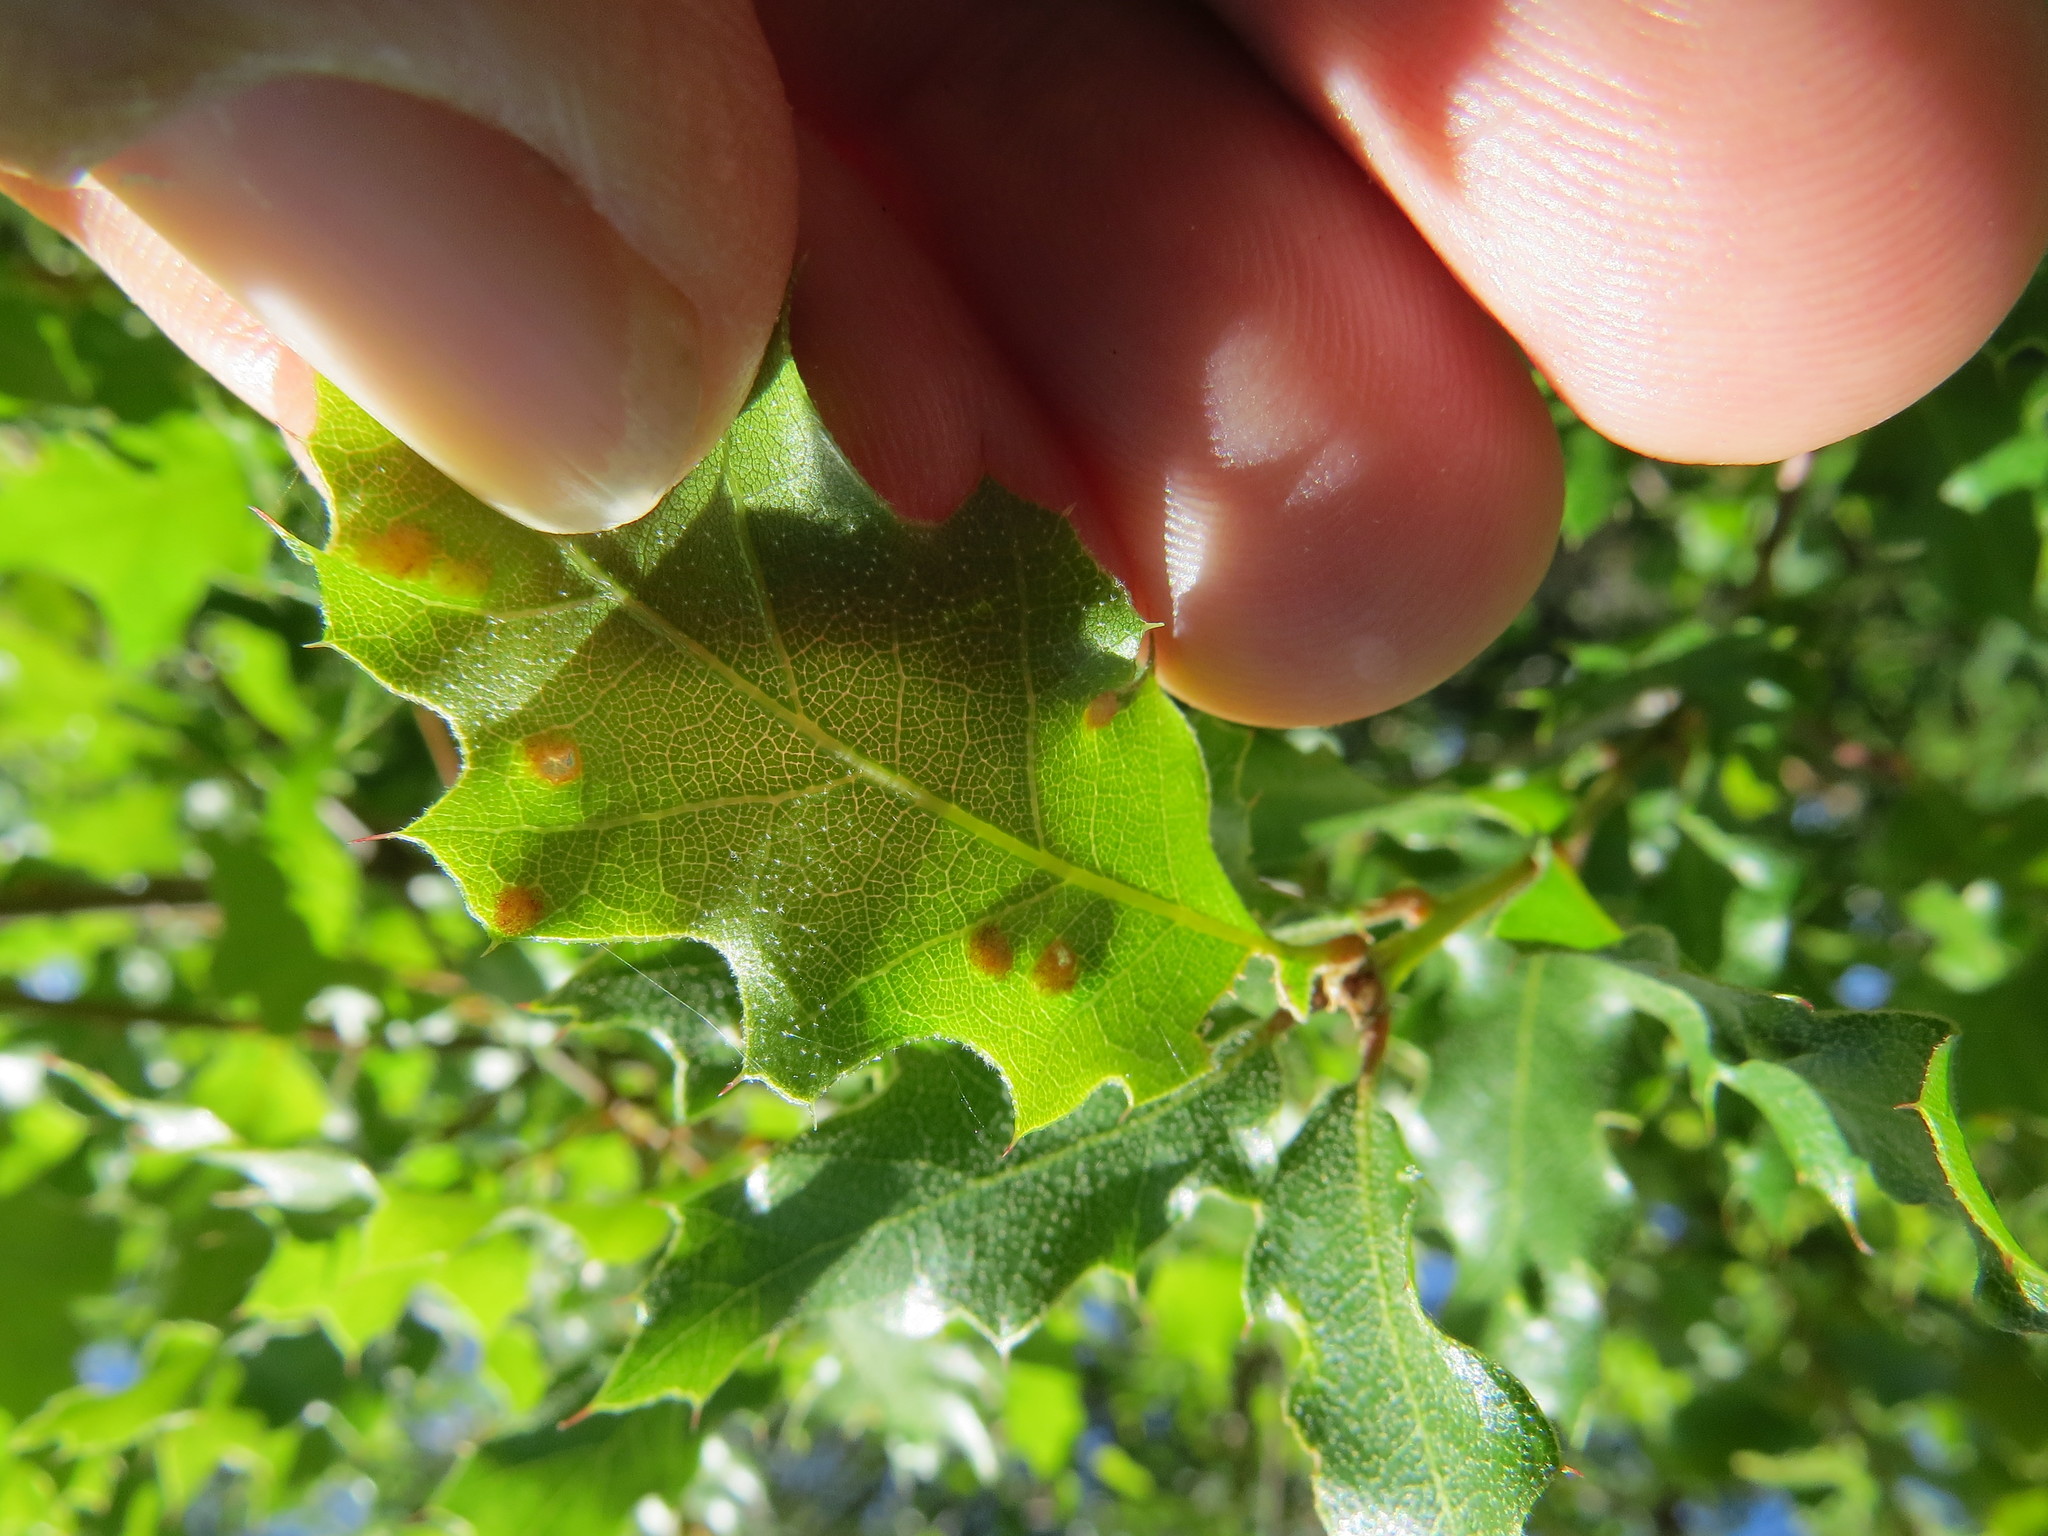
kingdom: Animalia
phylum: Arthropoda
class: Arachnida
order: Trombidiformes
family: Eriophyidae
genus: Aceria
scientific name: Aceria
